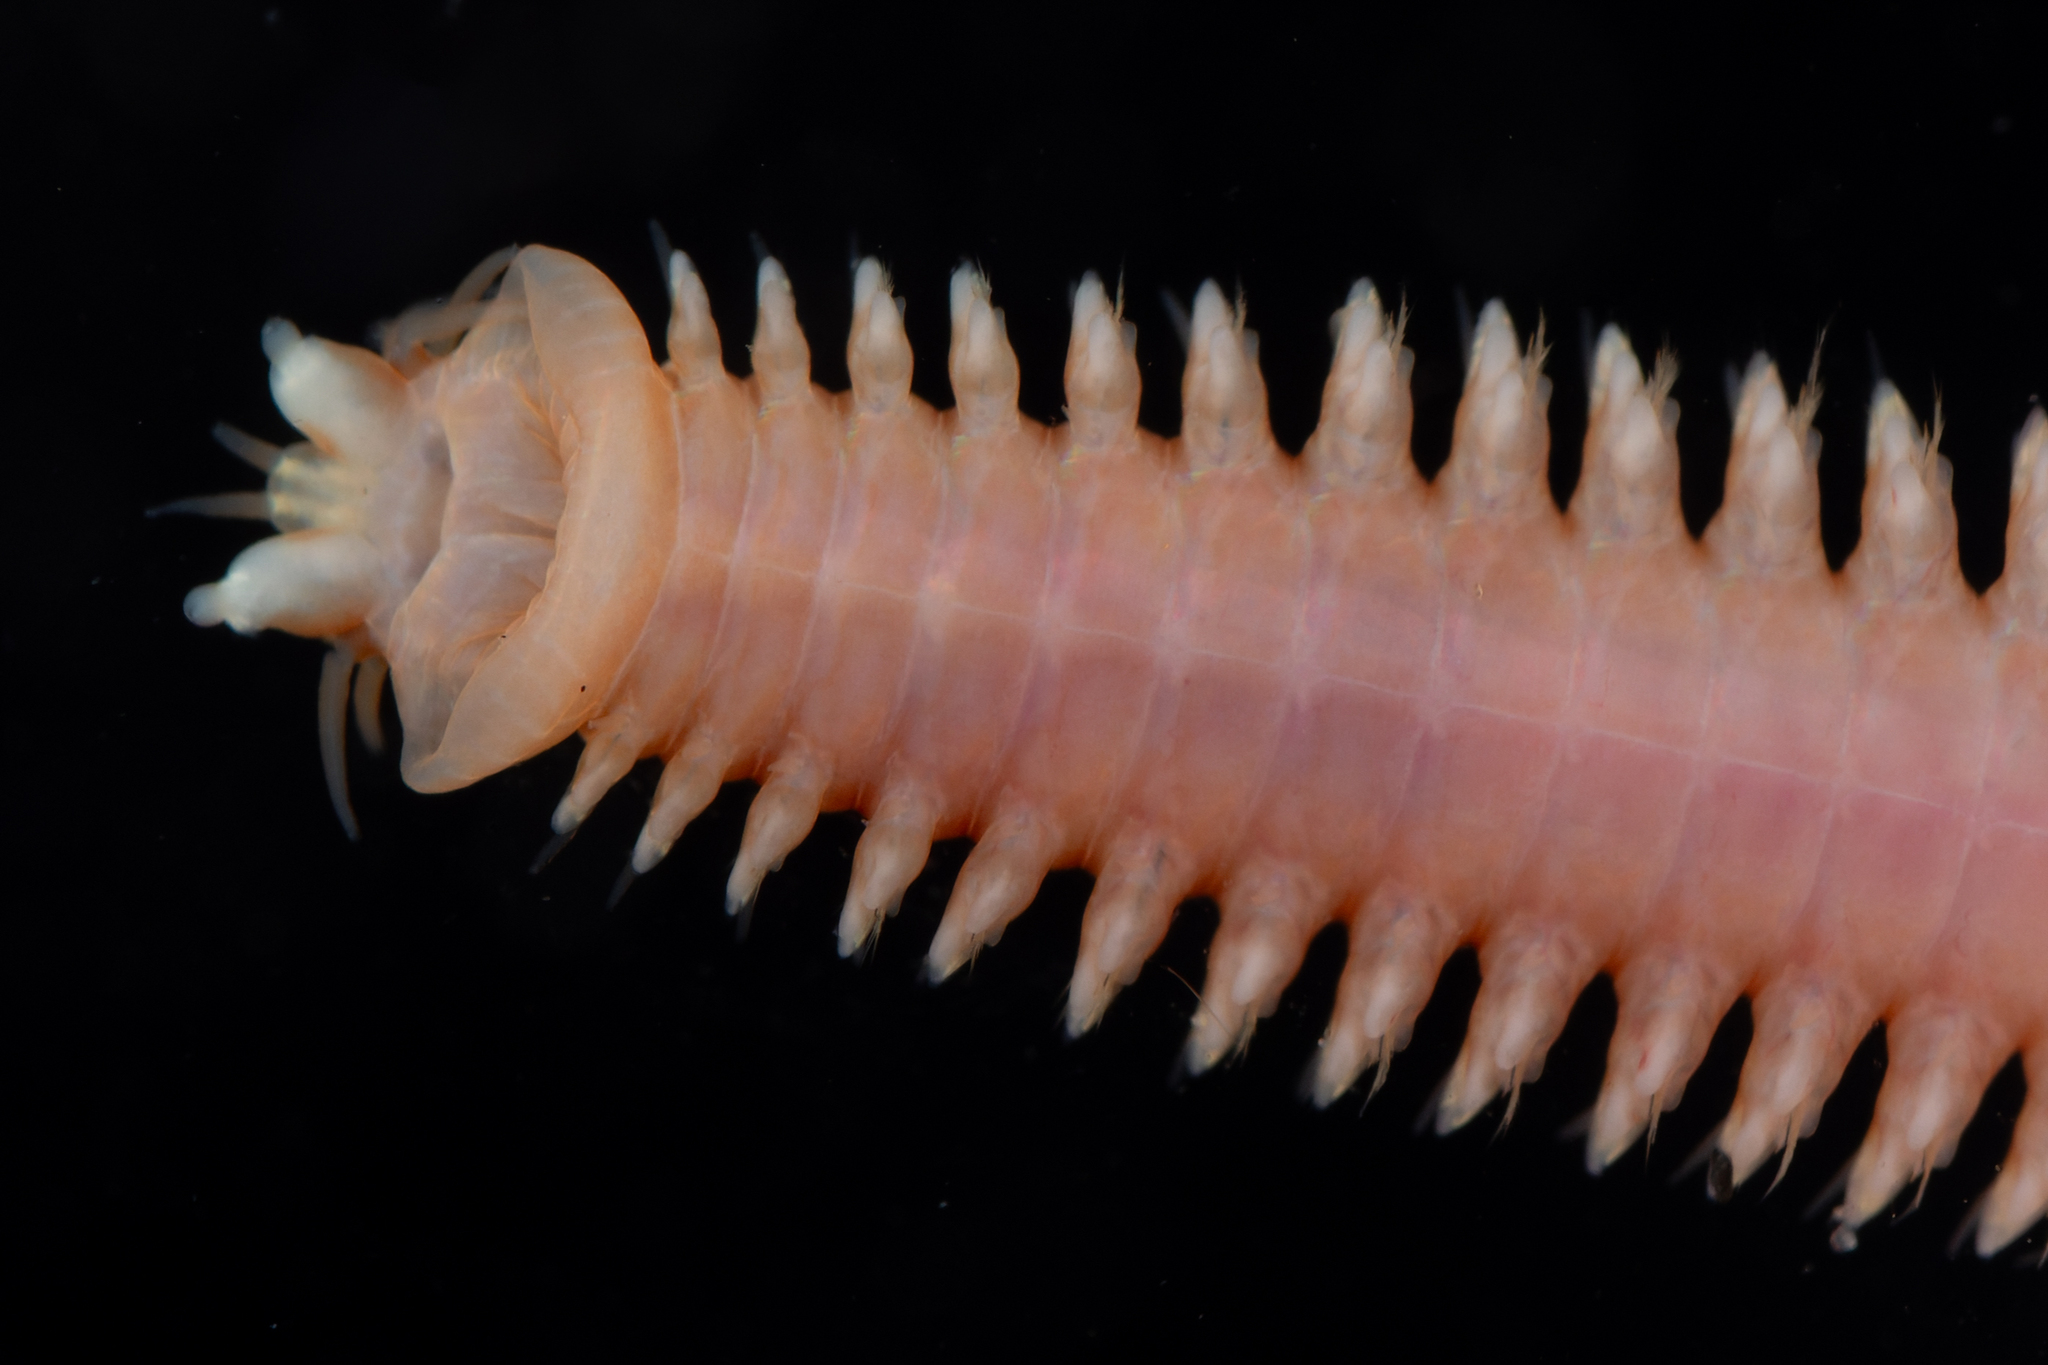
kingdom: Animalia
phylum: Annelida
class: Polychaeta
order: Phyllodocida
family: Nereididae
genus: Cheilonereis
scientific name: Cheilonereis peristomialis
